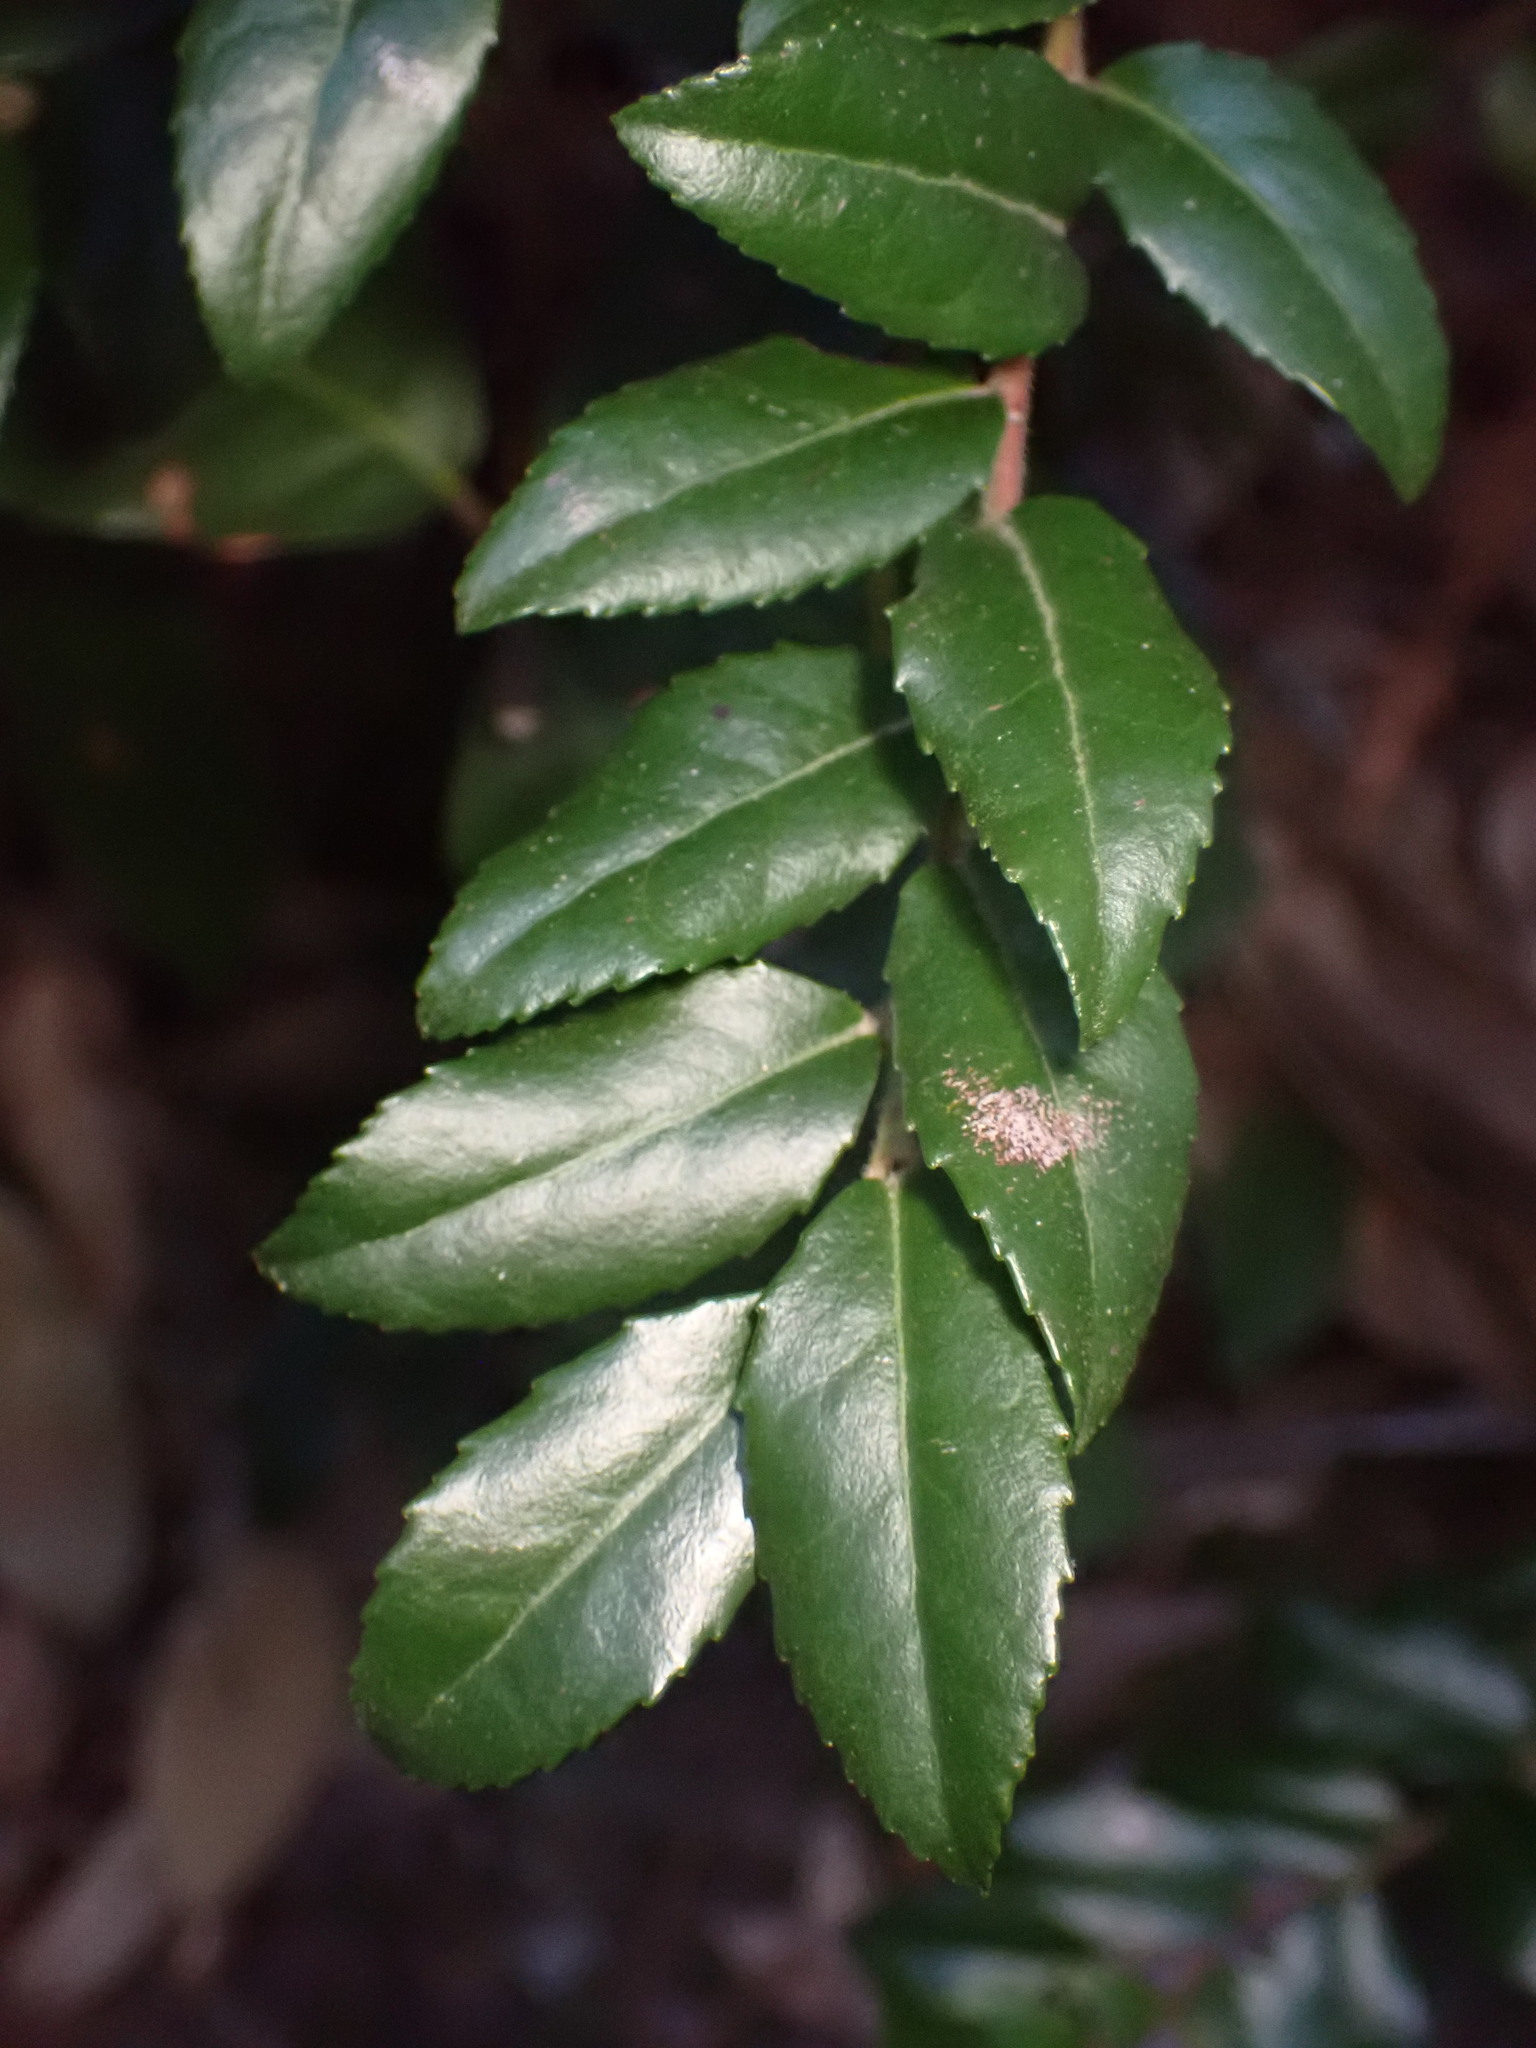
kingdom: Plantae
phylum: Tracheophyta
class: Magnoliopsida
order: Ericales
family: Ericaceae
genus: Vaccinium
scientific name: Vaccinium ovatum
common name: California-huckleberry
